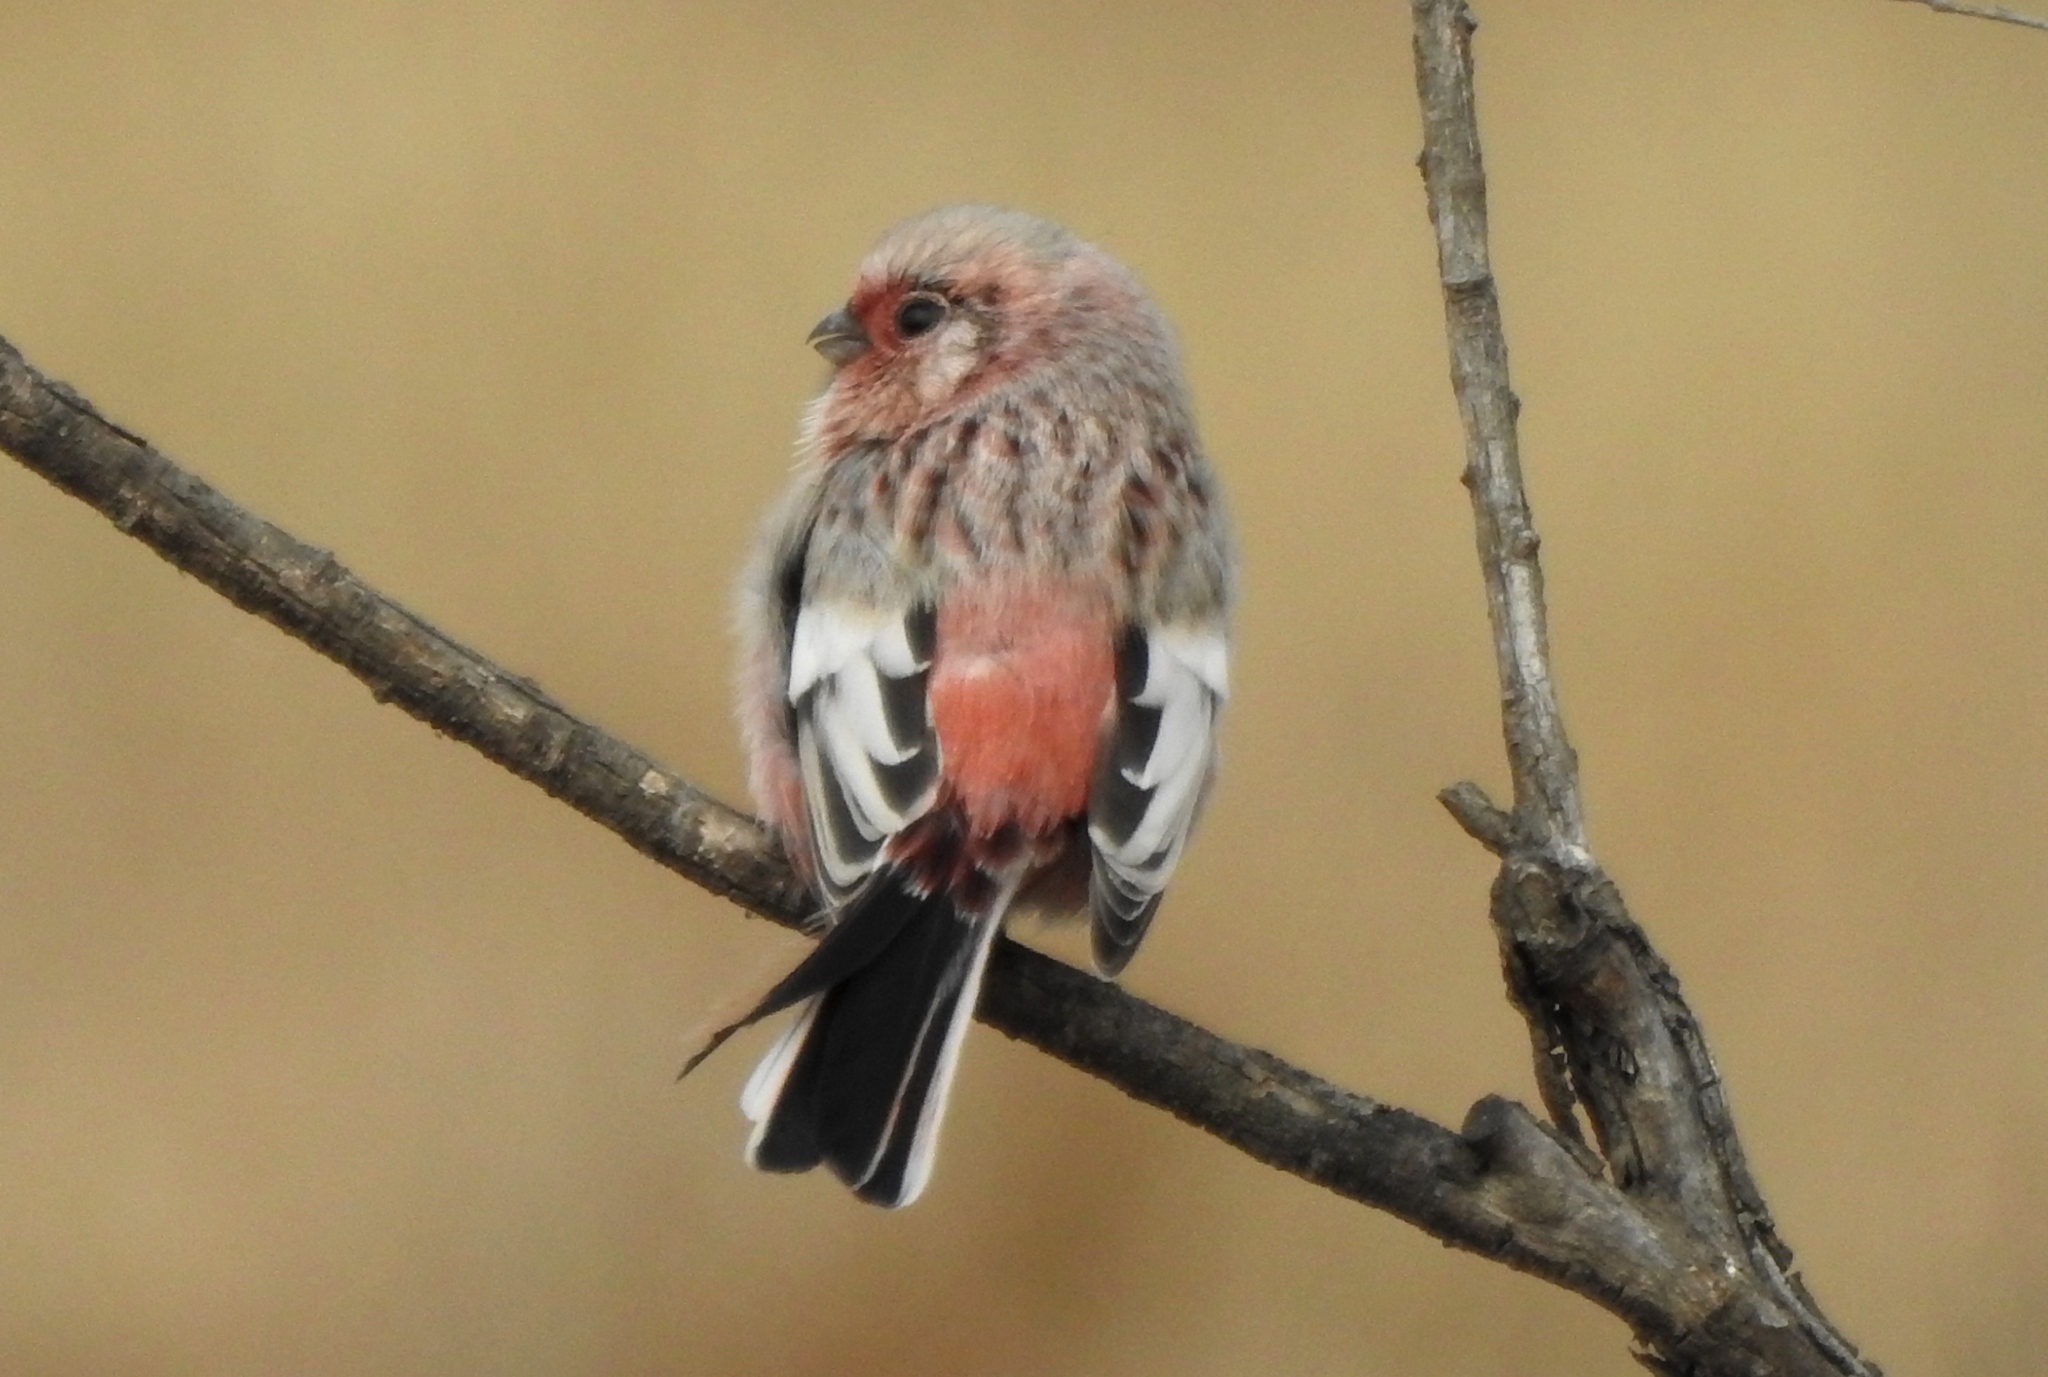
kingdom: Animalia
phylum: Chordata
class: Aves
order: Passeriformes
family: Fringillidae
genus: Carpodacus
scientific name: Carpodacus sibiricus
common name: Long-tailed rosefinch
